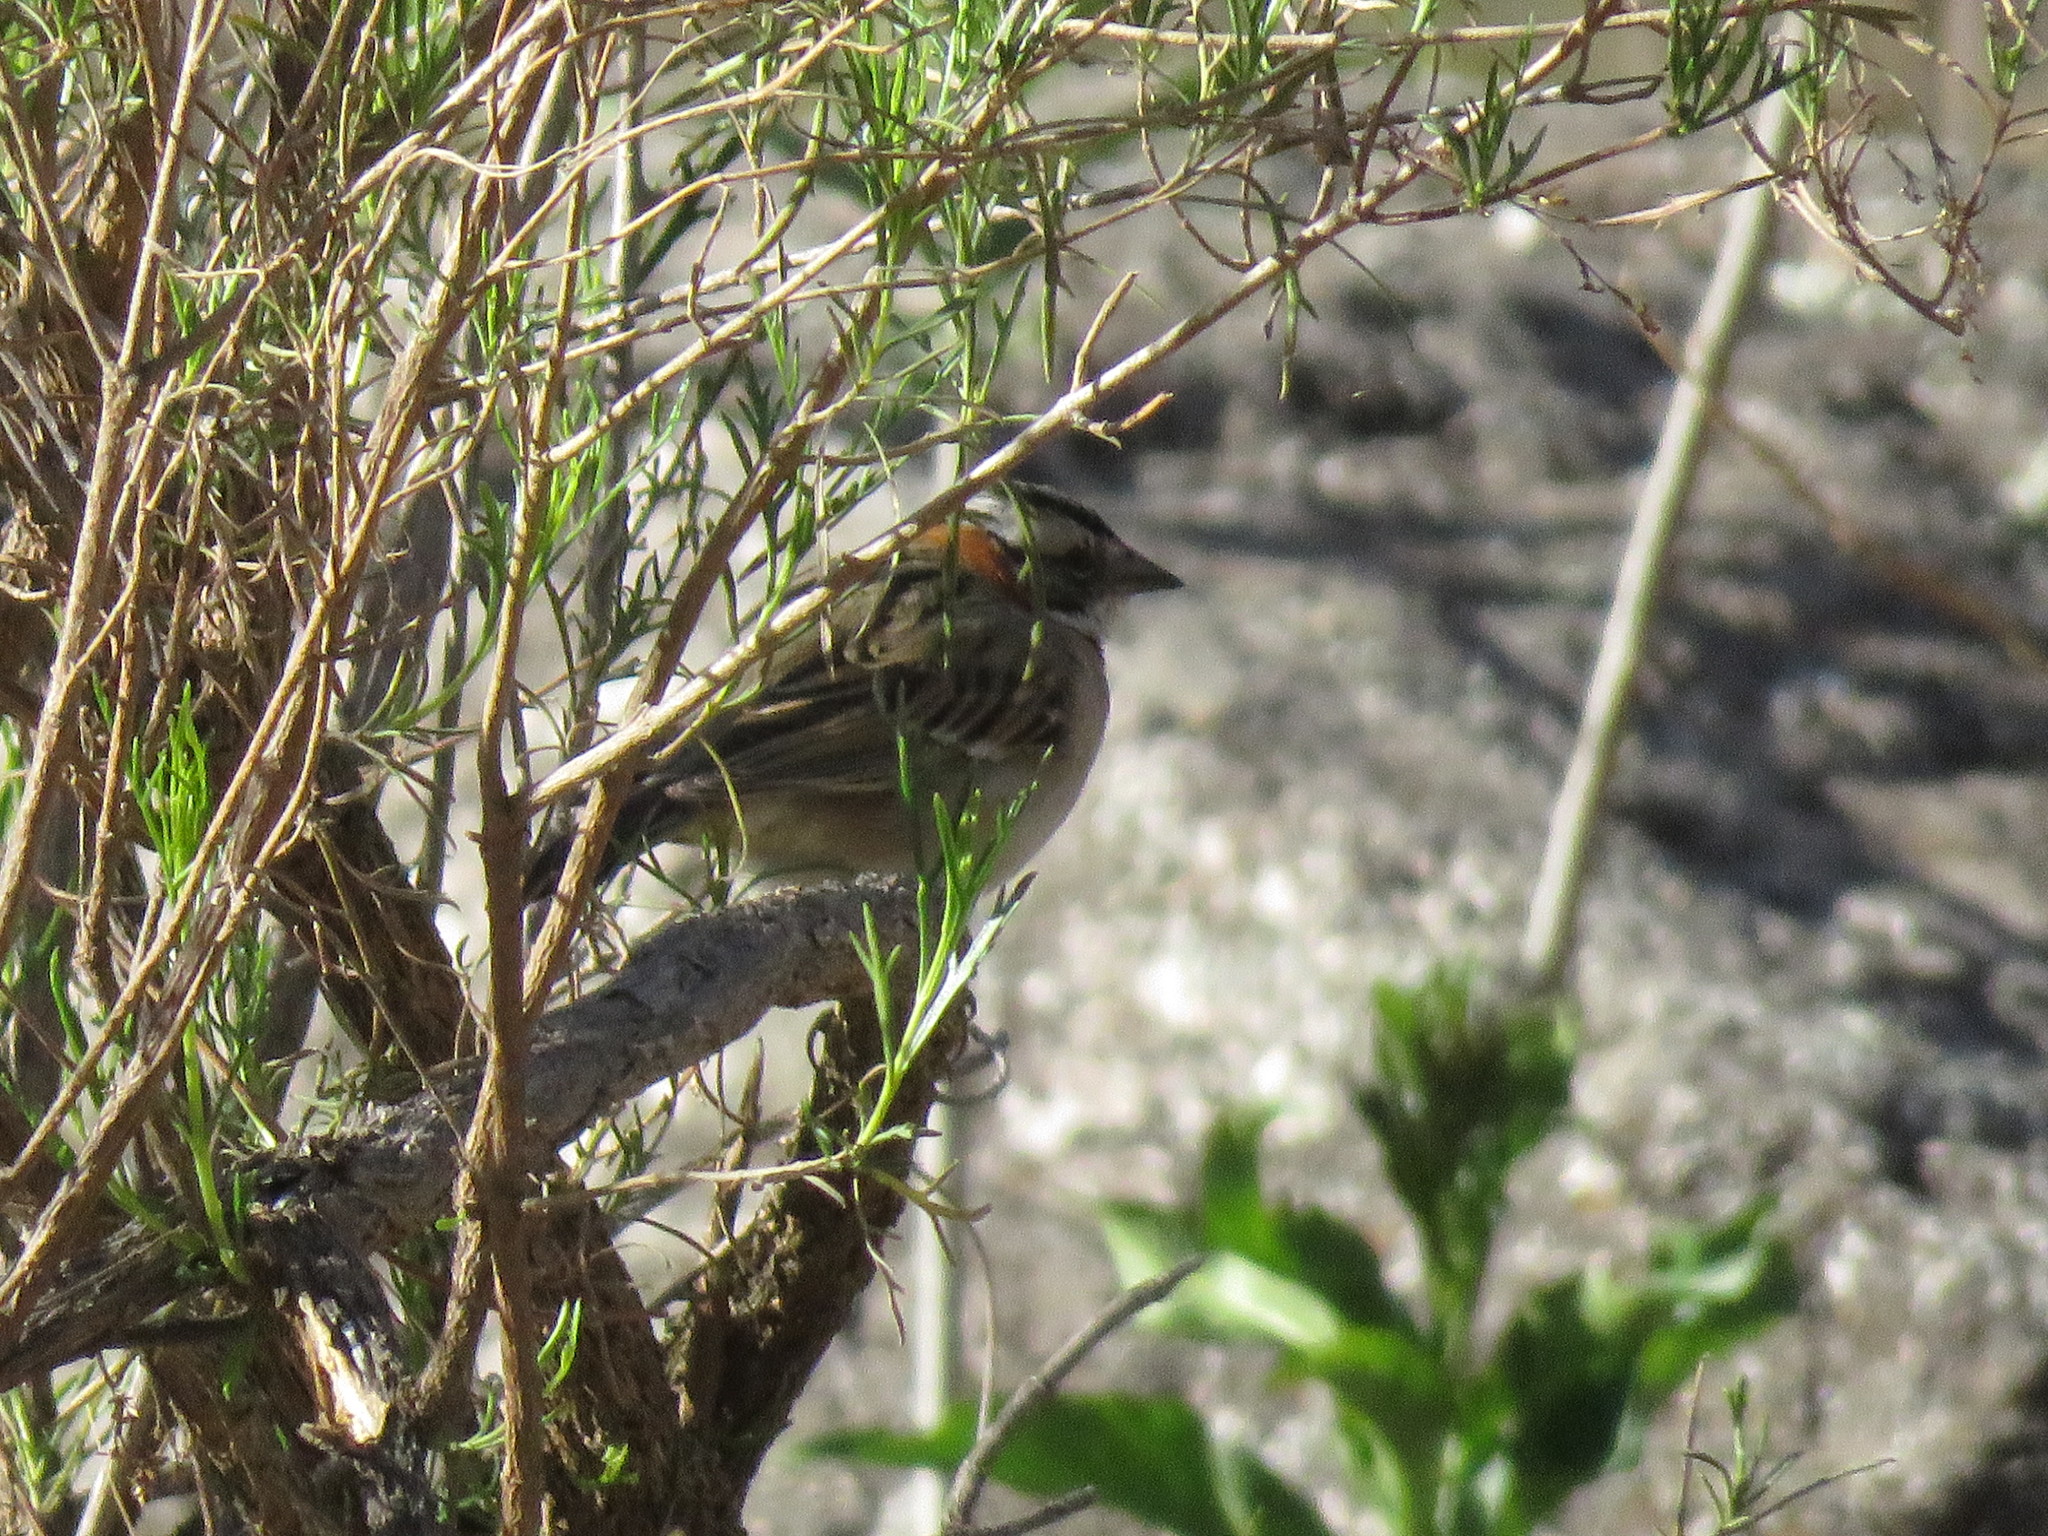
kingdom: Animalia
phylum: Chordata
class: Aves
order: Passeriformes
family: Passerellidae
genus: Zonotrichia
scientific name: Zonotrichia capensis
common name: Rufous-collared sparrow
